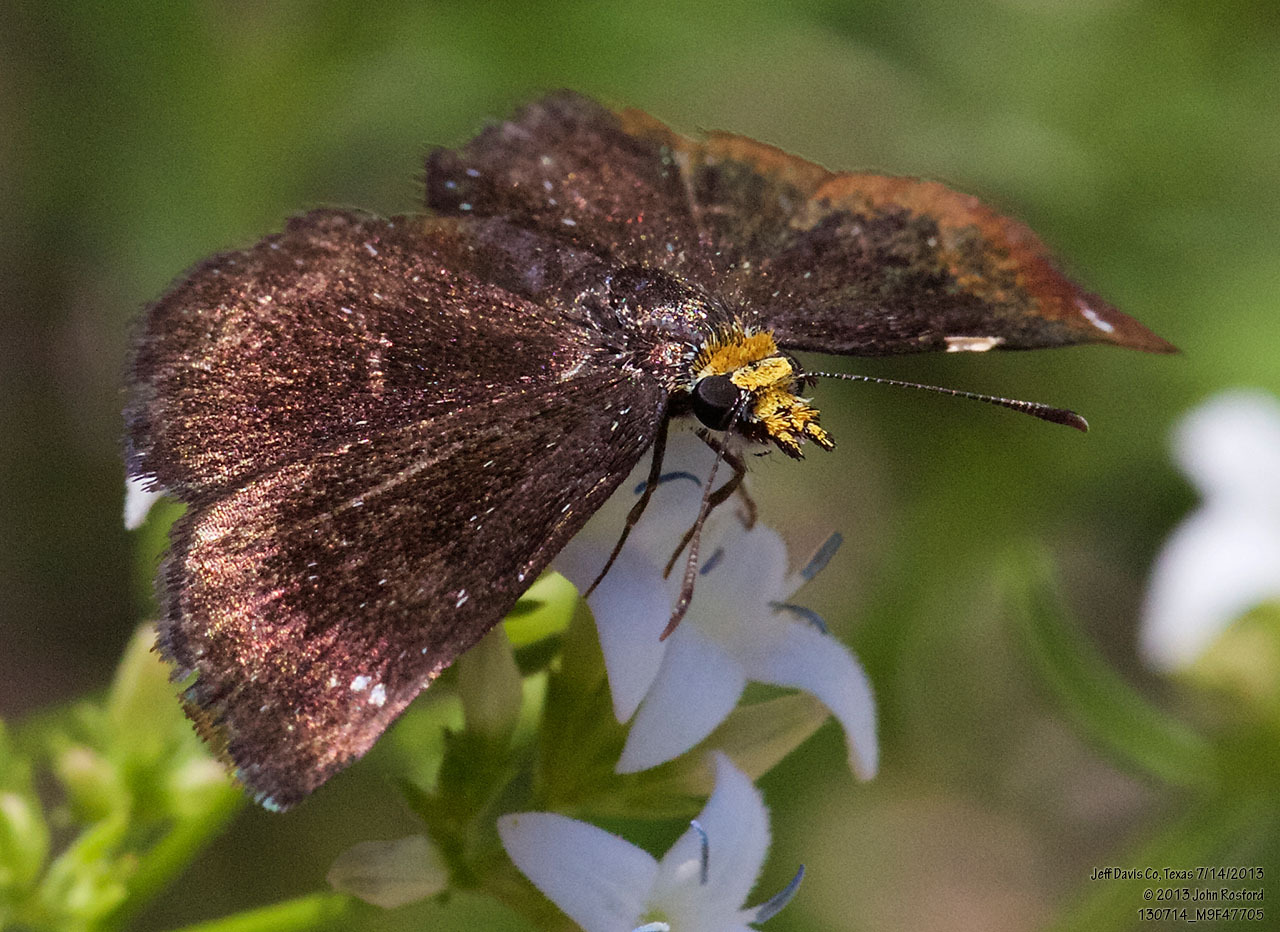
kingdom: Animalia
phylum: Arthropoda
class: Insecta
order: Lepidoptera
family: Hesperiidae
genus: Staphylus
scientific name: Staphylus ceos
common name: Golden-headed scallopwing
